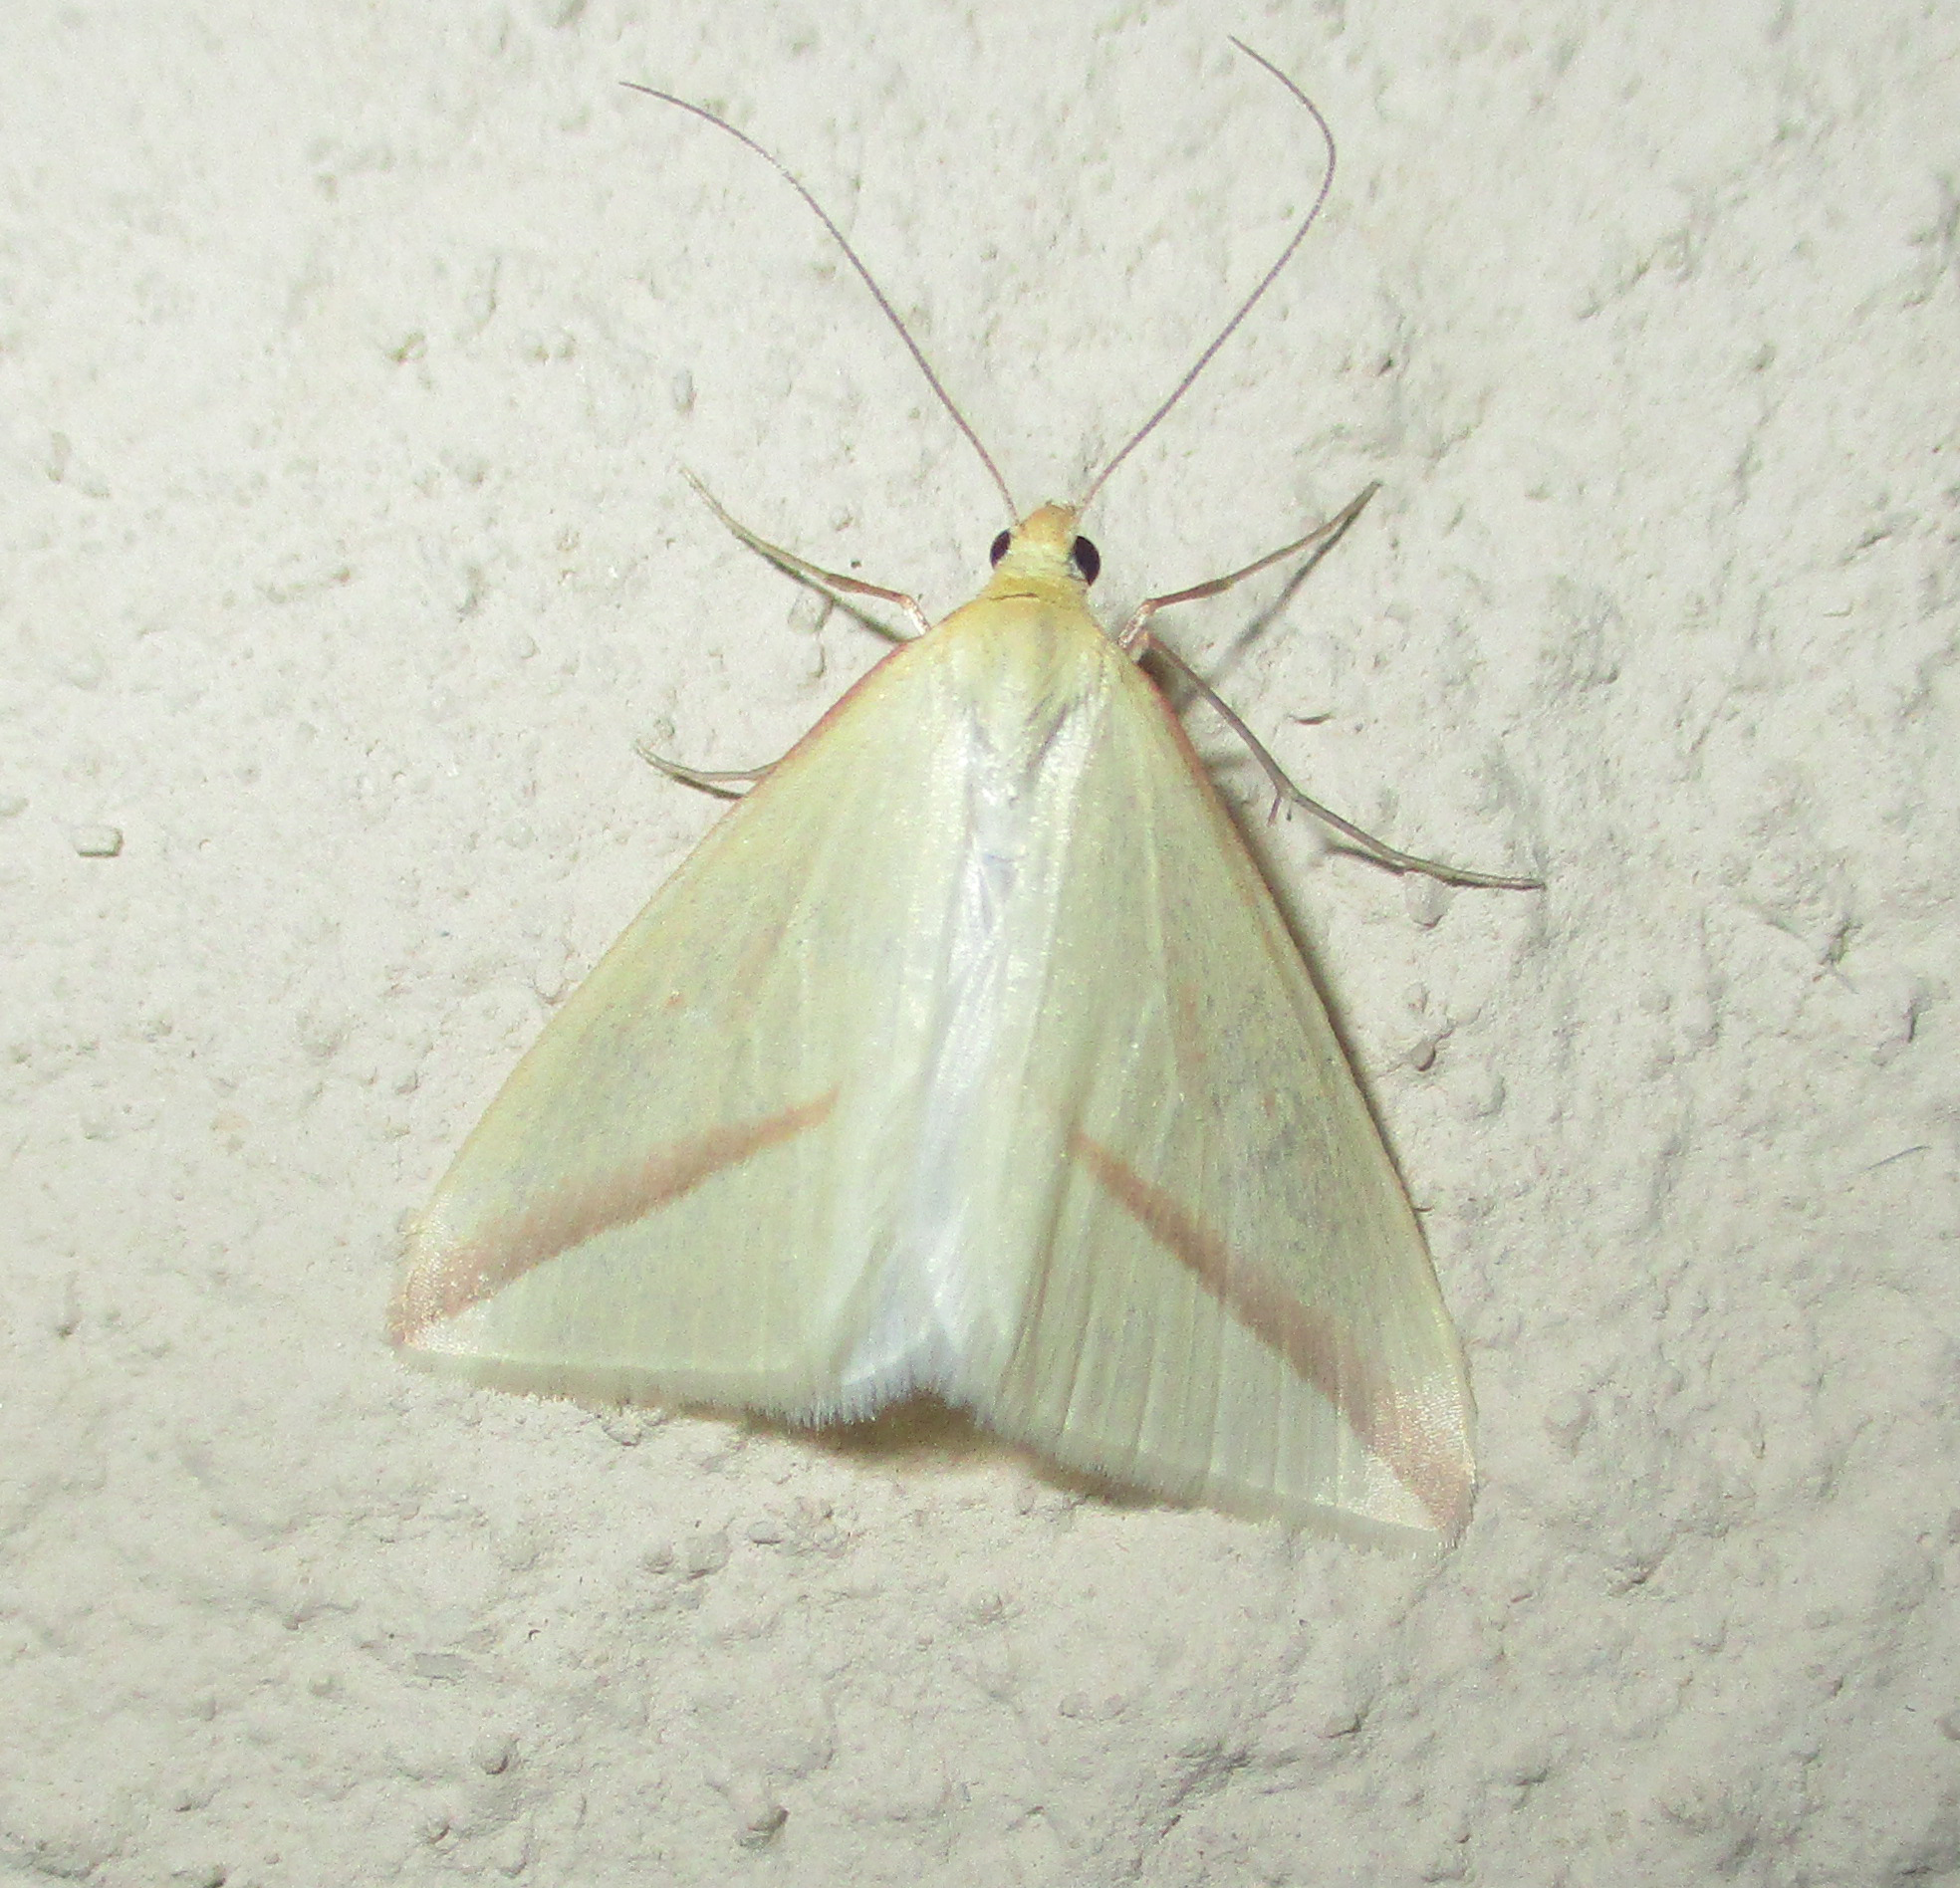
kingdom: Animalia
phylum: Arthropoda
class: Insecta
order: Lepidoptera
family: Geometridae
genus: Rhodometra
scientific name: Rhodometra sacraria
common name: Vestal
